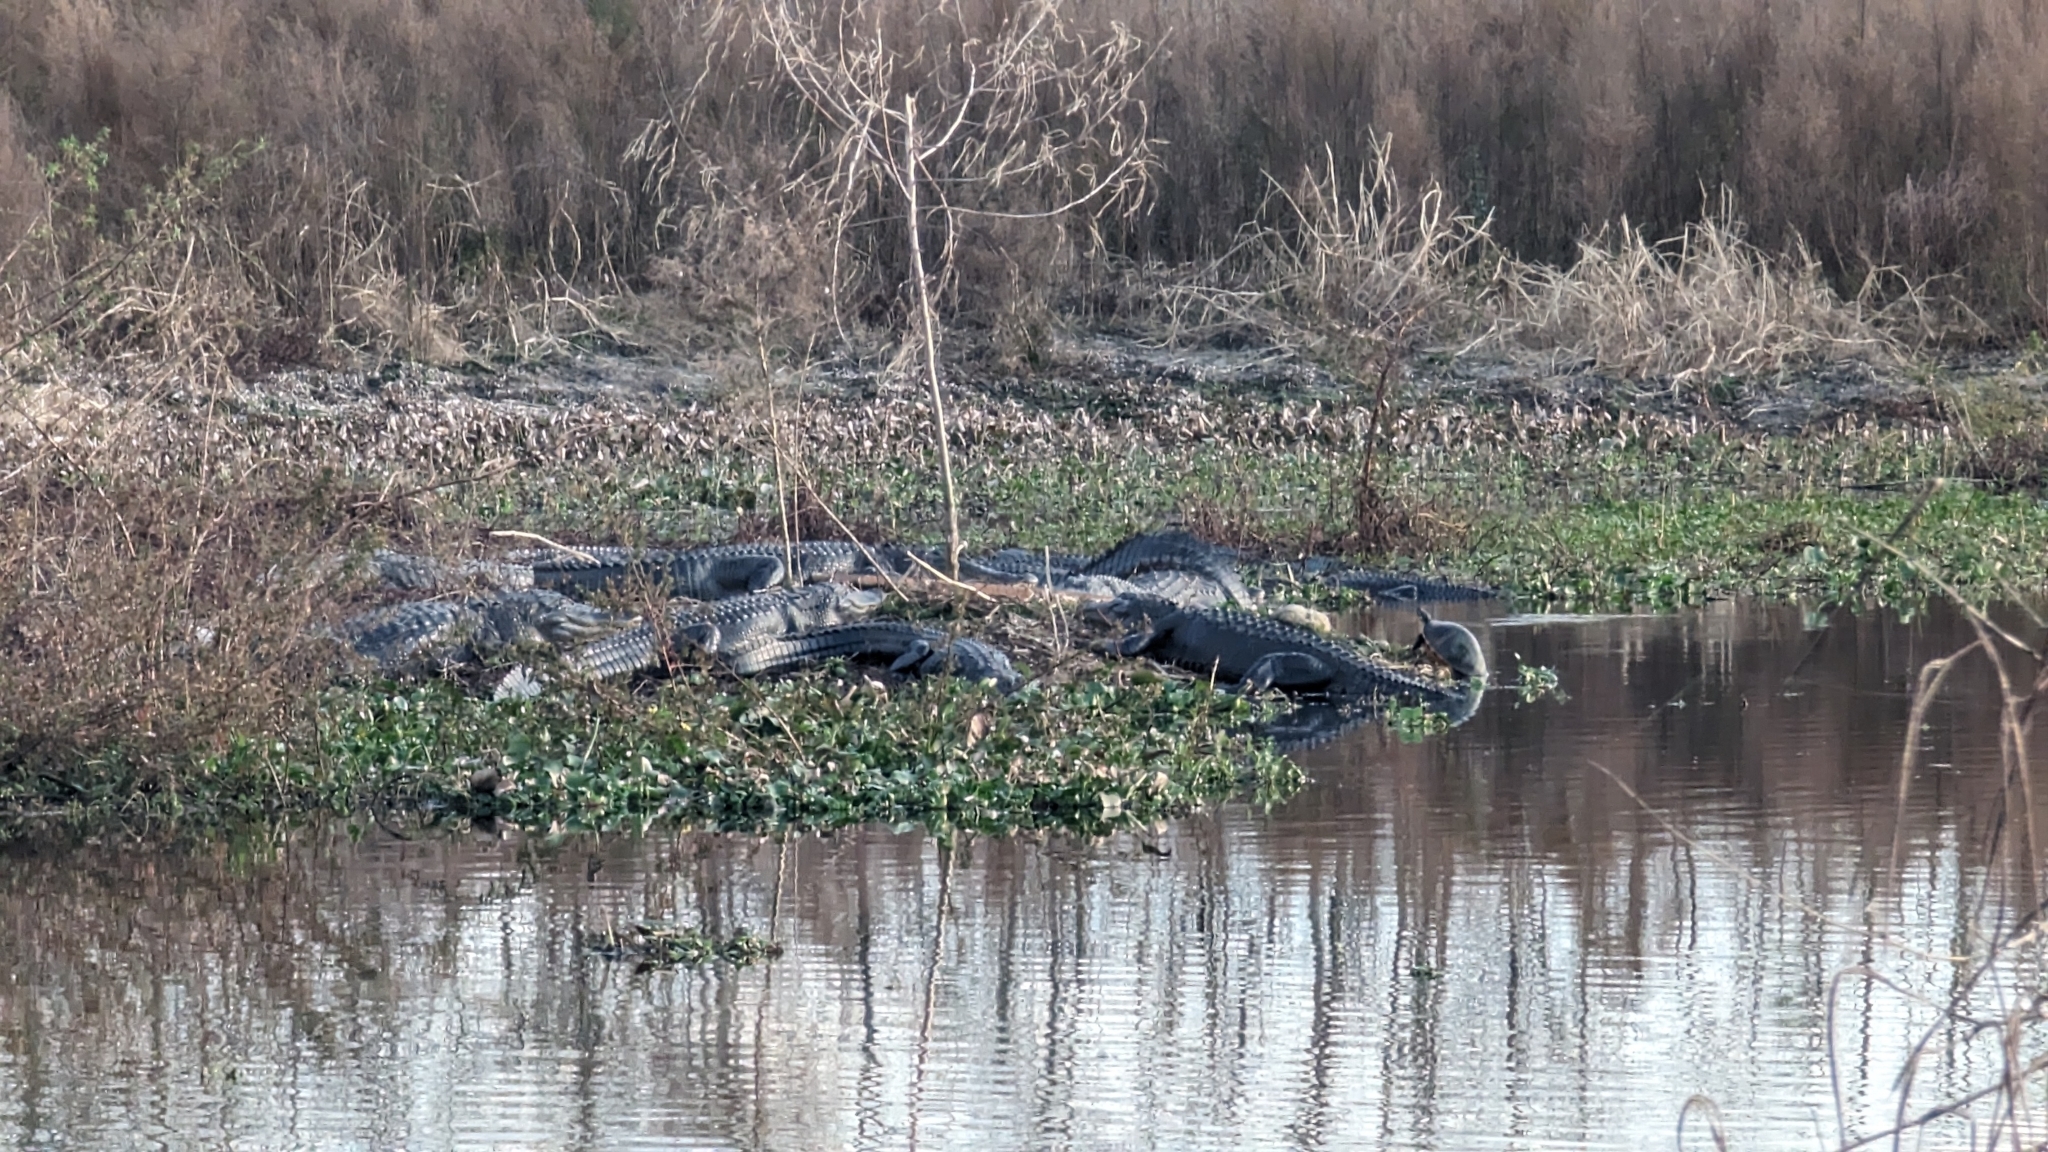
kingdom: Animalia
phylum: Chordata
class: Crocodylia
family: Alligatoridae
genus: Alligator
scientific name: Alligator mississippiensis
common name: American alligator
